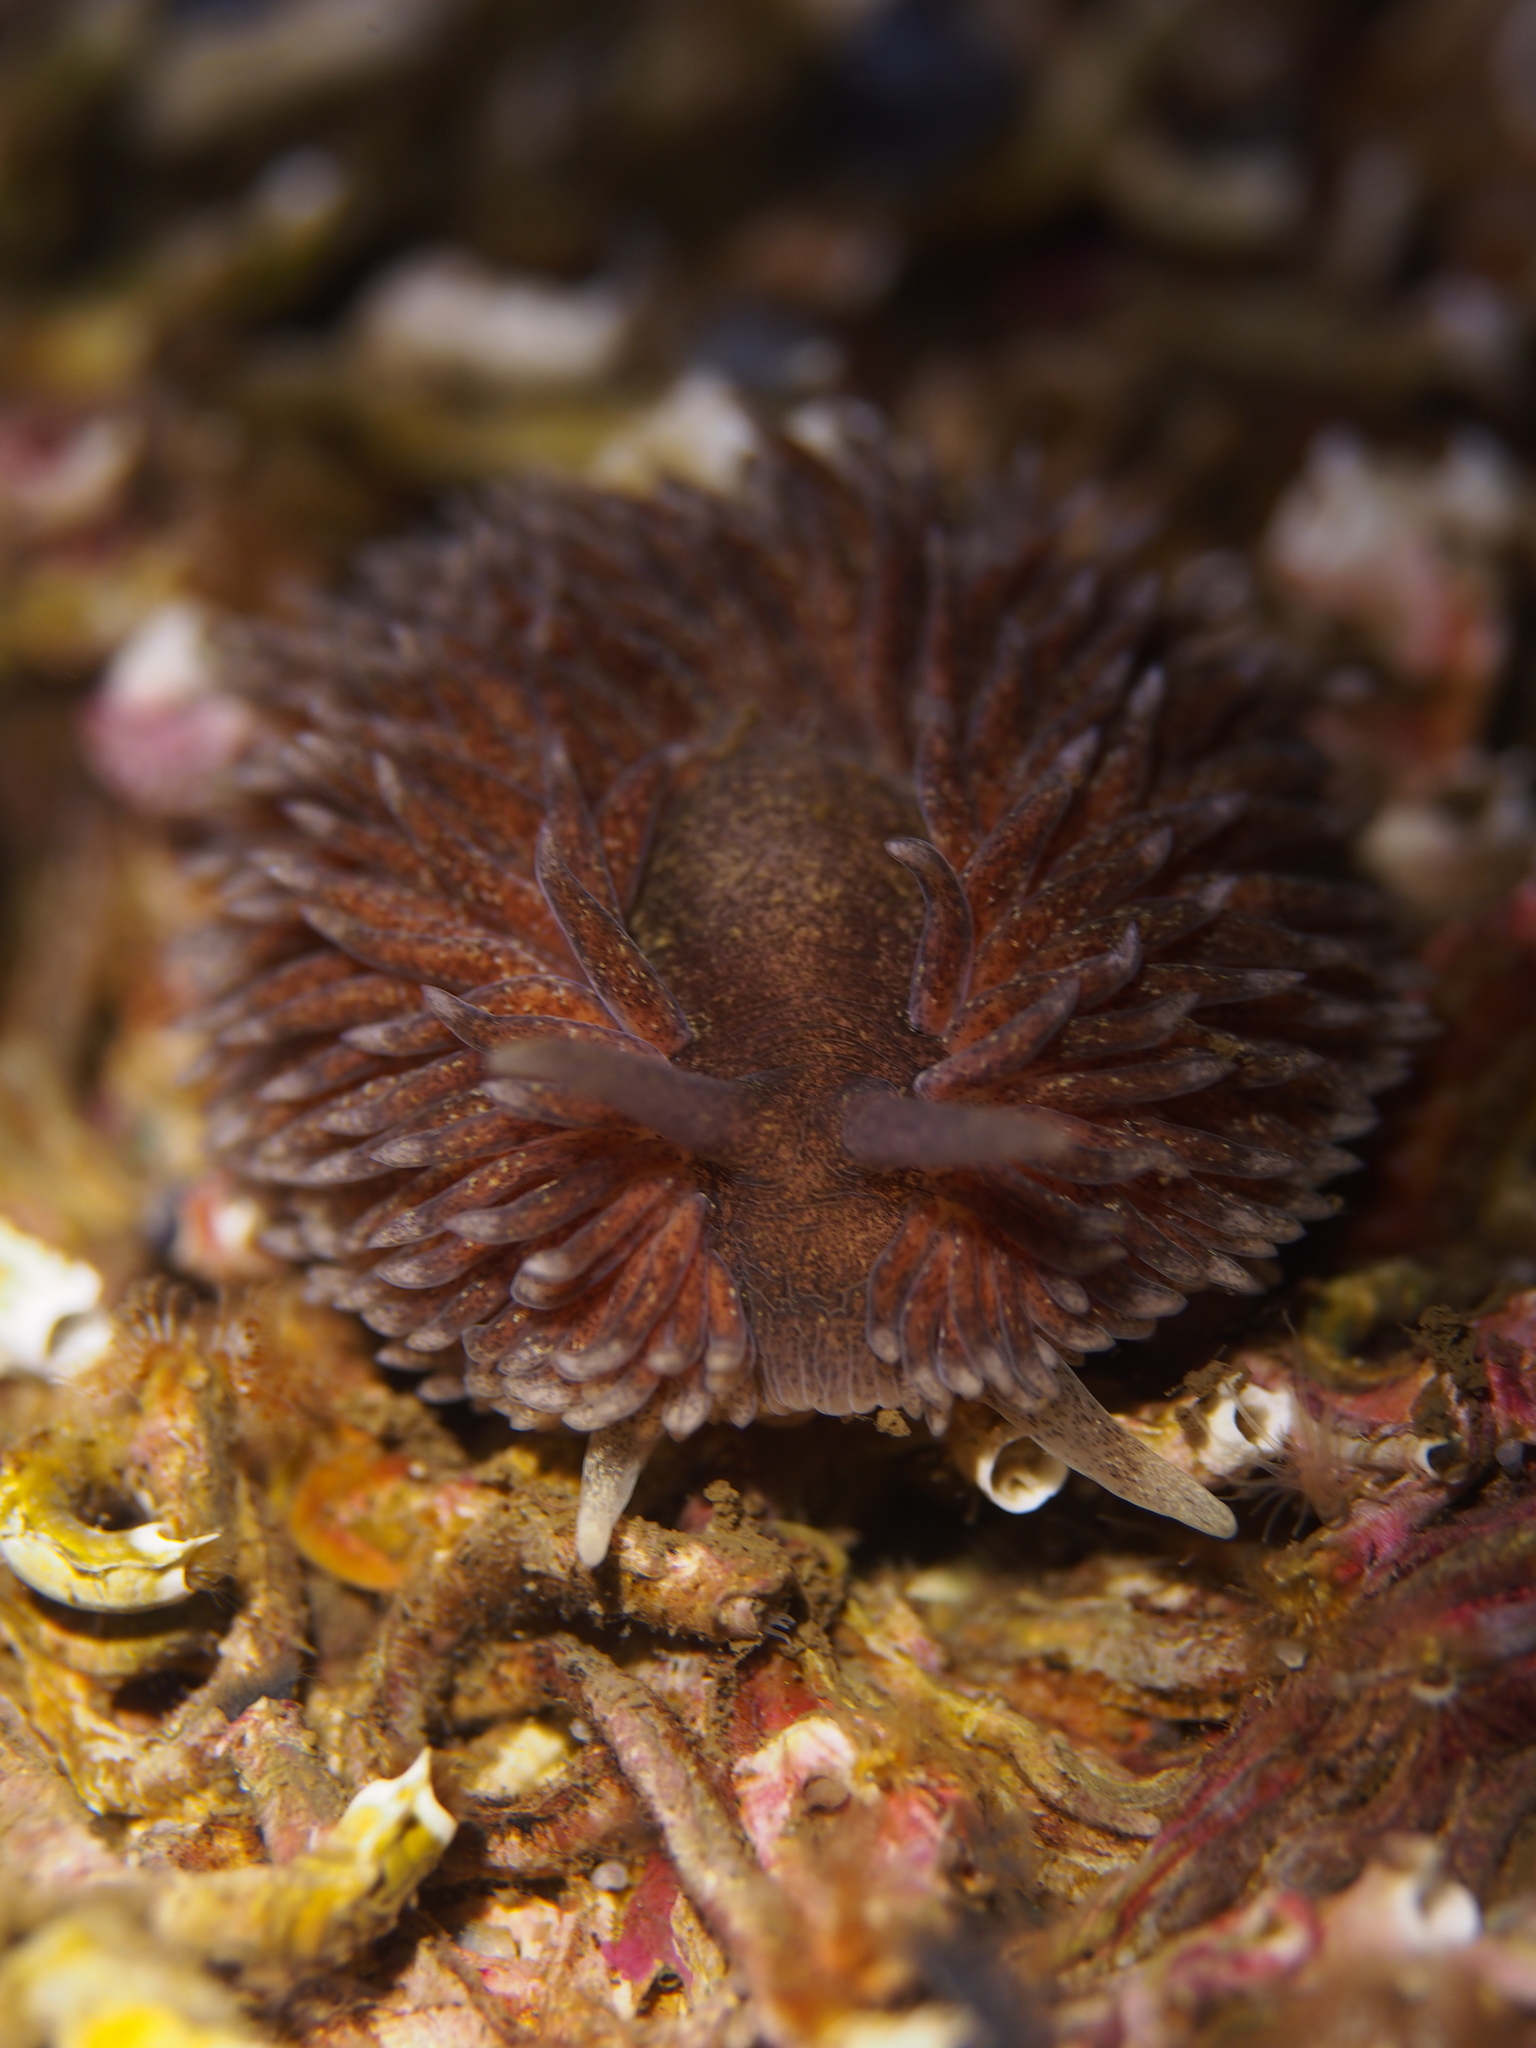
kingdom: Animalia
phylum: Mollusca
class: Gastropoda
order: Nudibranchia
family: Aeolidiidae
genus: Aeolidia
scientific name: Aeolidia papillosa
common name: Common grey sea slug
